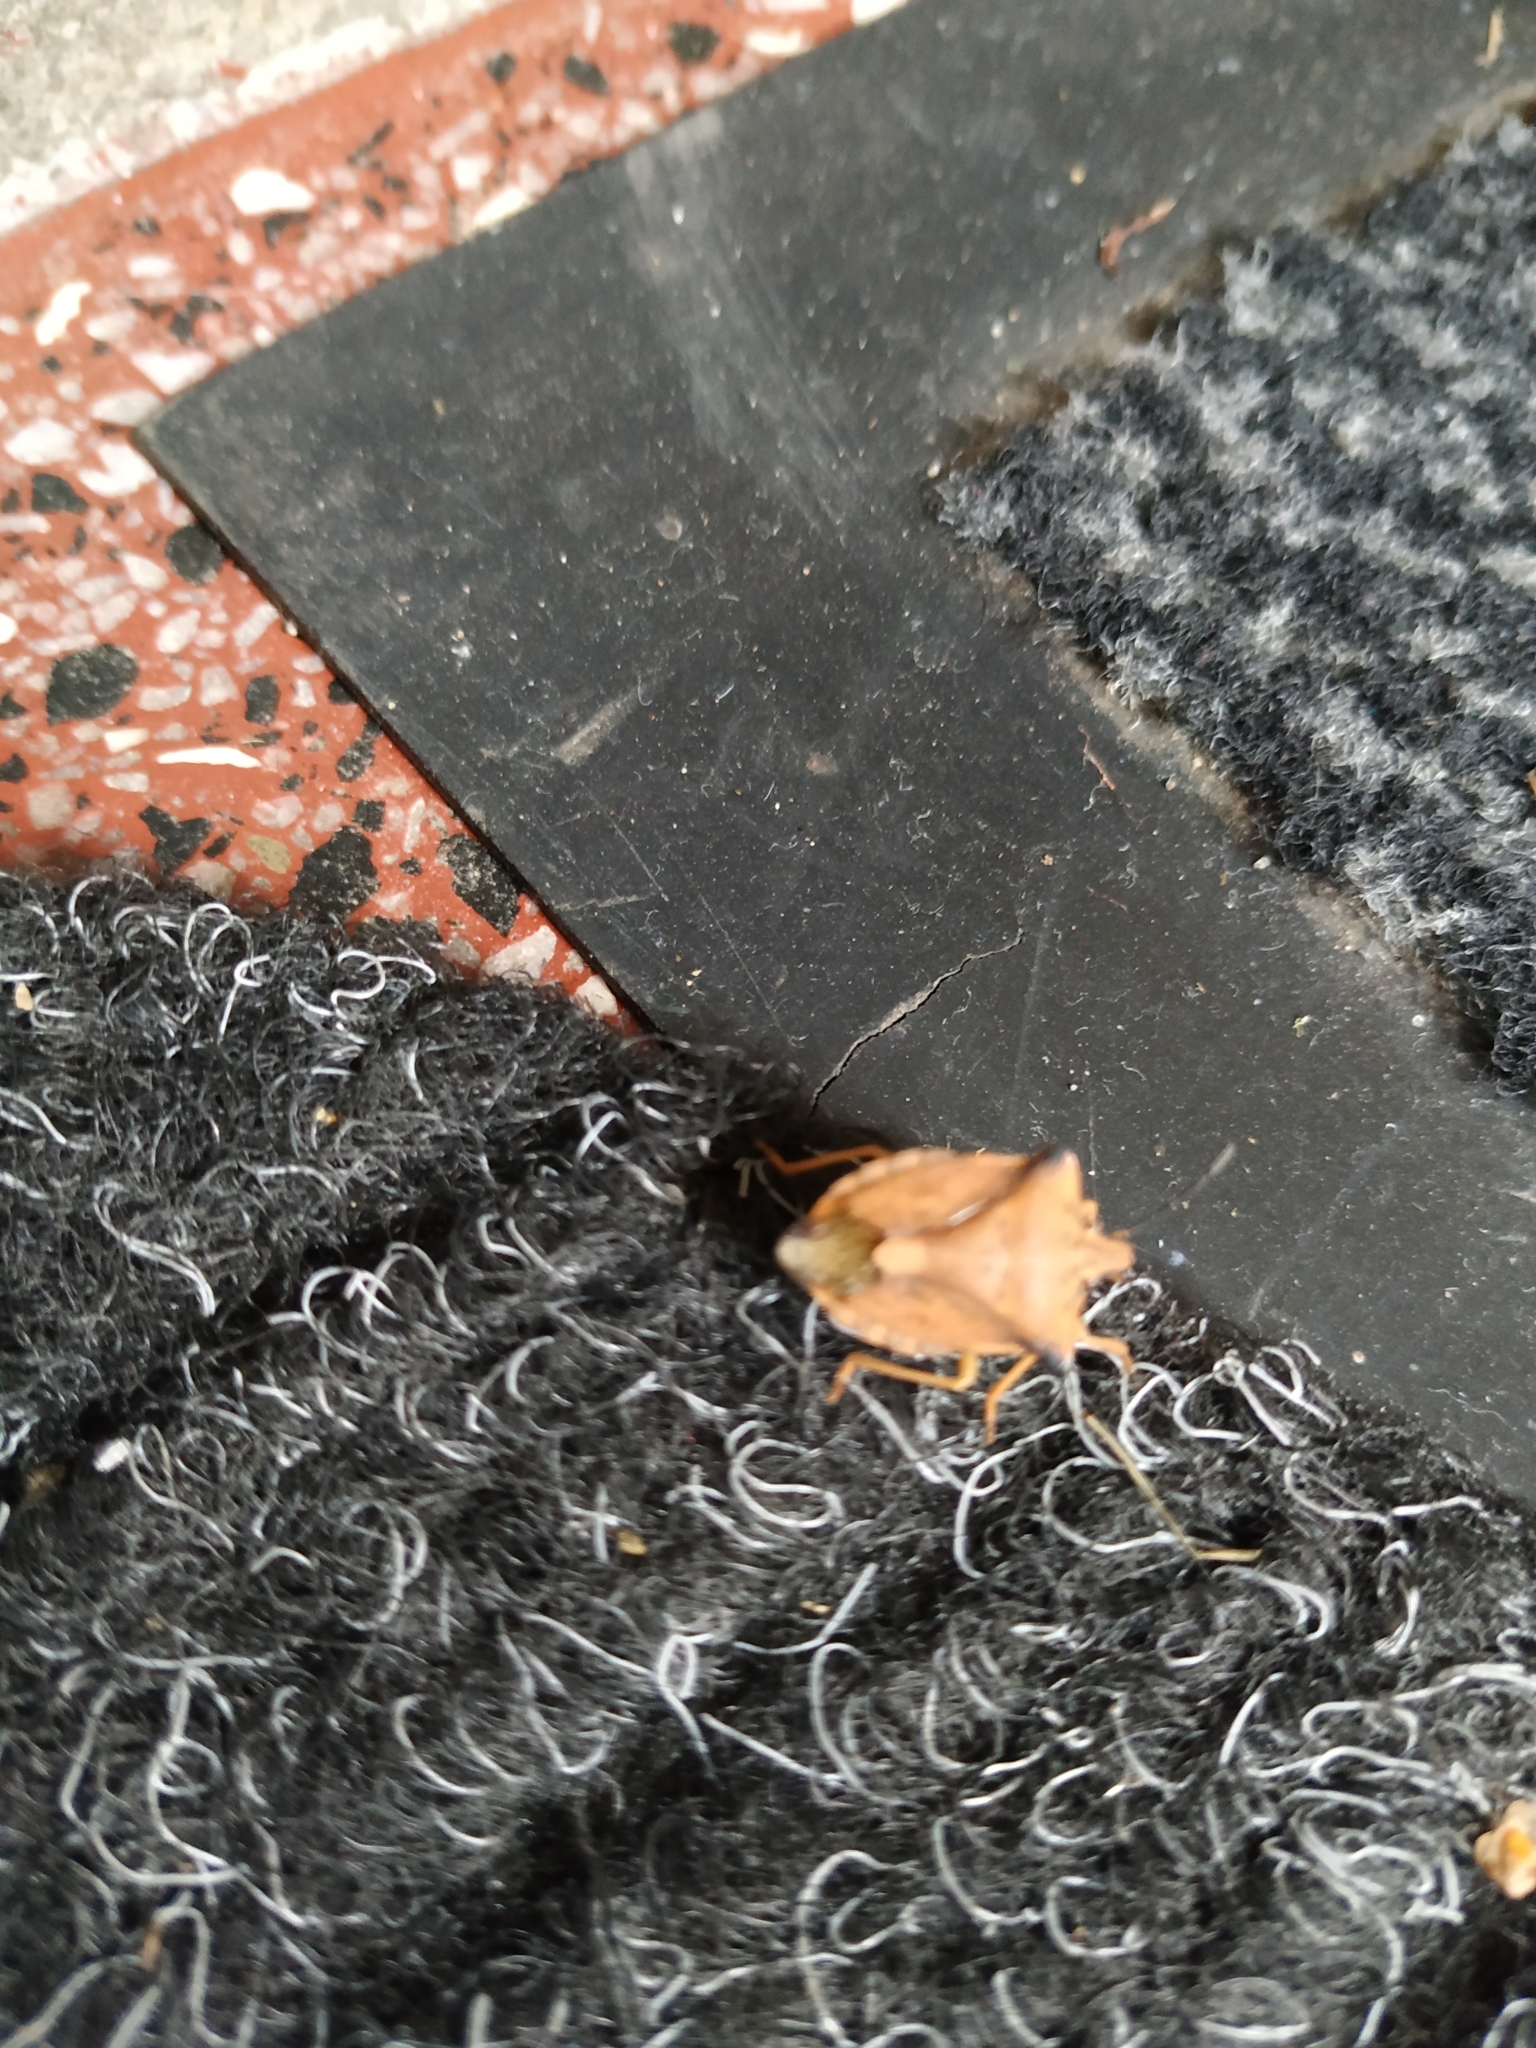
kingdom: Animalia
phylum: Arthropoda
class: Insecta
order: Hemiptera
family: Pentatomidae
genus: Carpocoris
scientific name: Carpocoris fuscispinus
